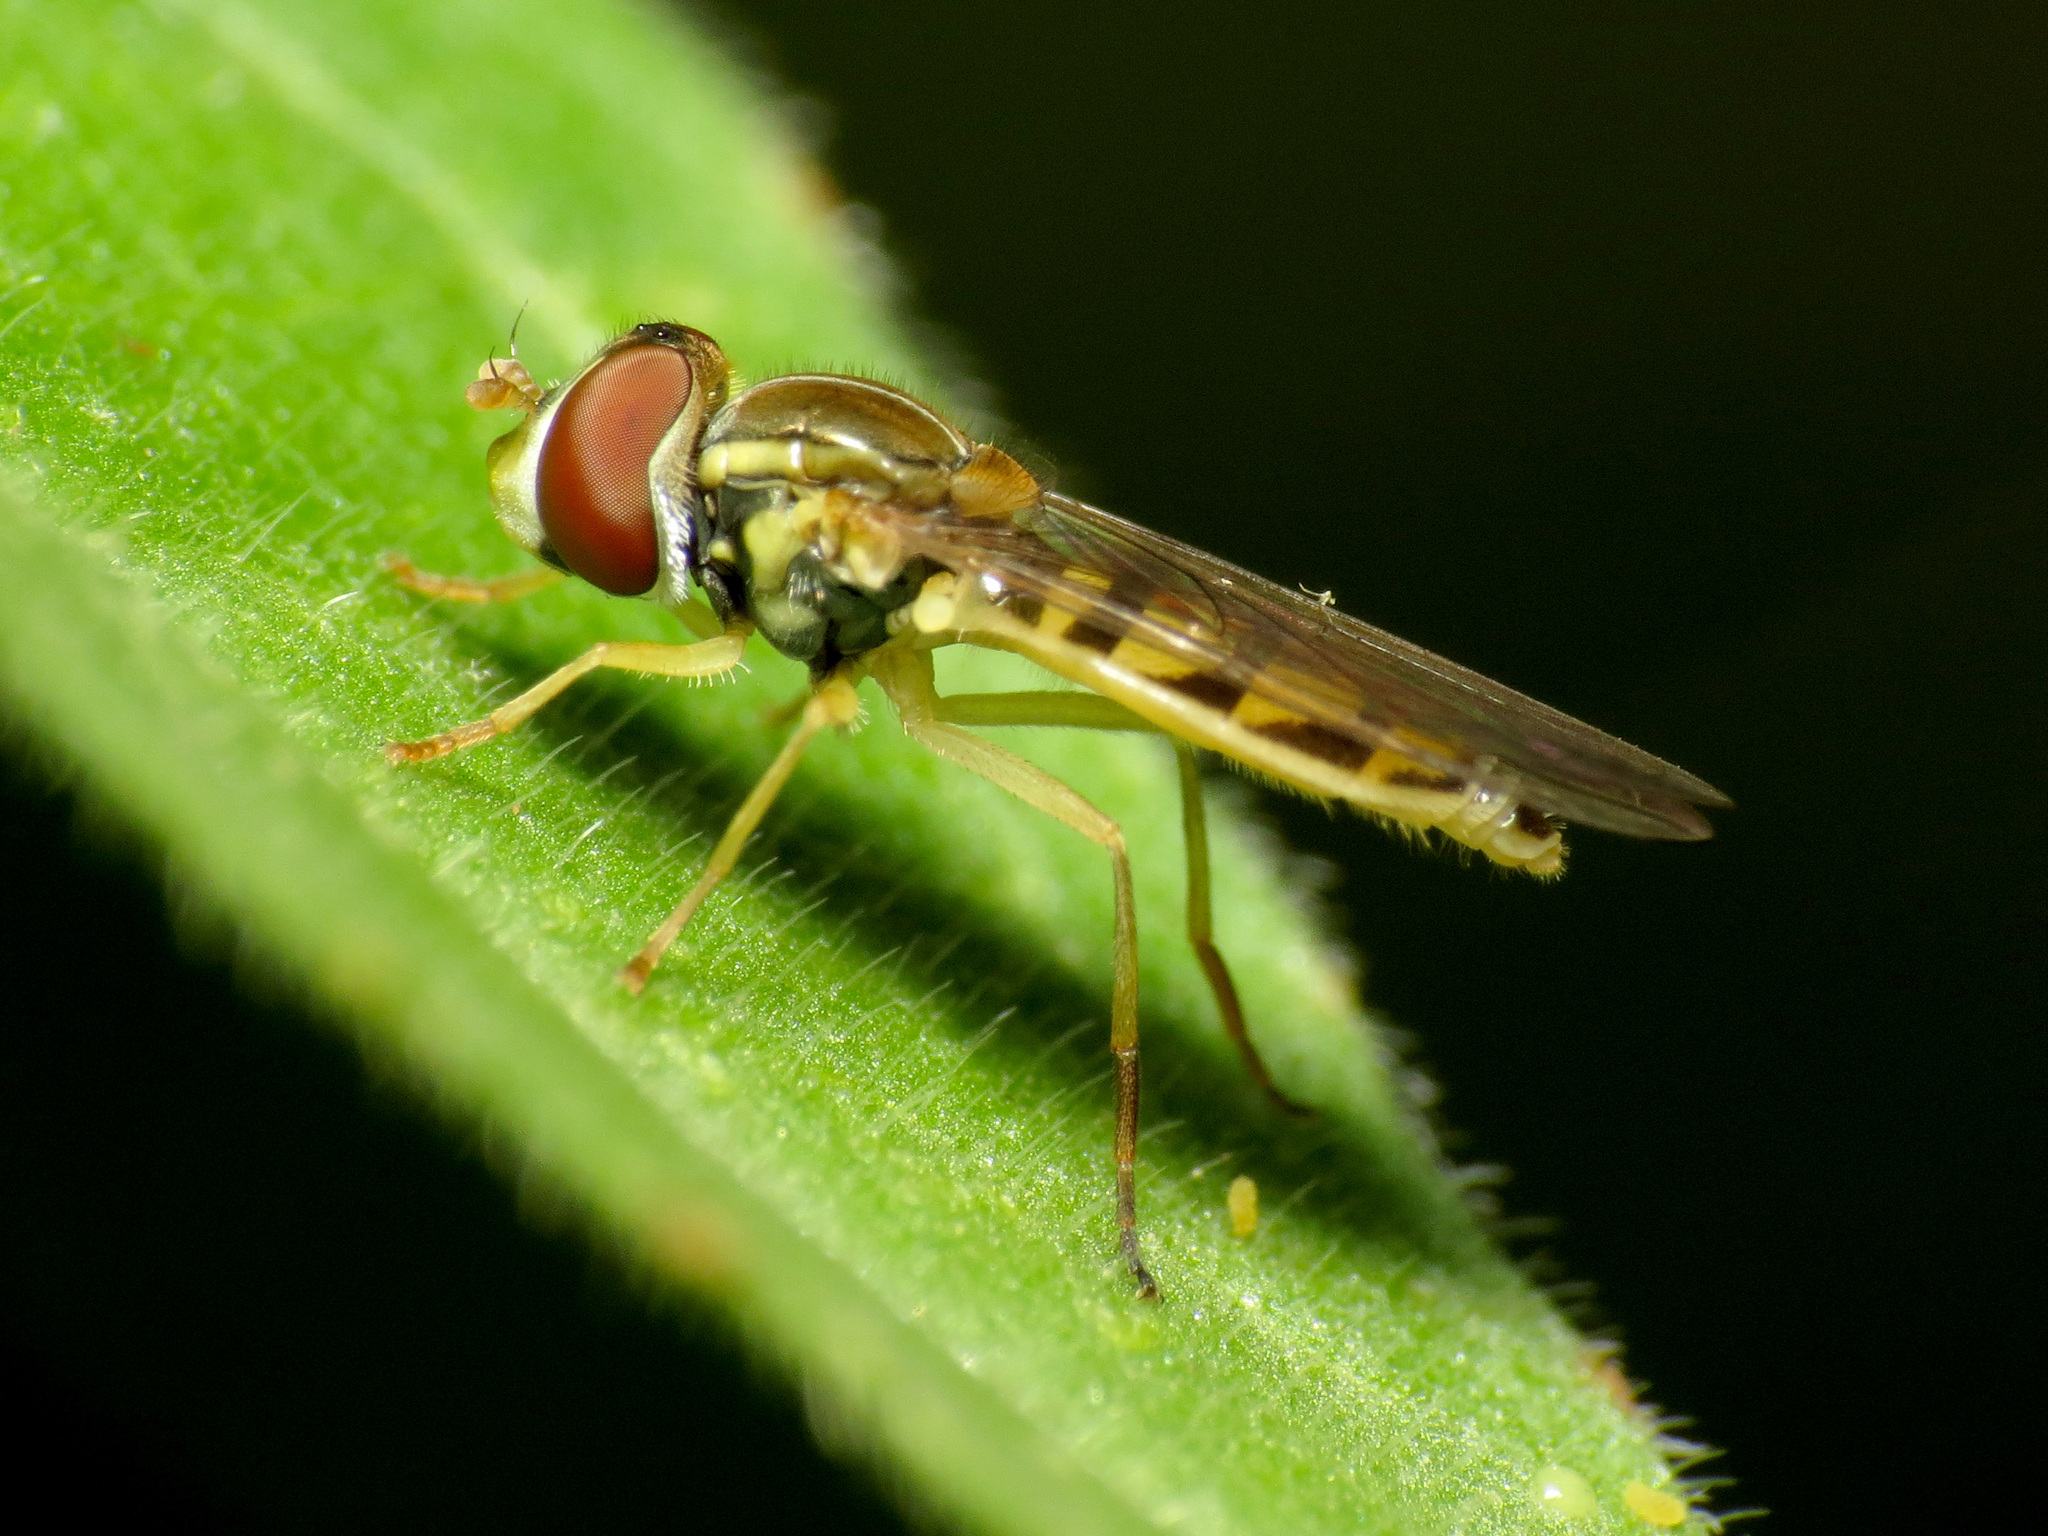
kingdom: Animalia
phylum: Arthropoda
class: Insecta
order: Diptera
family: Syrphidae
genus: Toxomerus
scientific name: Toxomerus marginatus
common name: Syrphid fly
